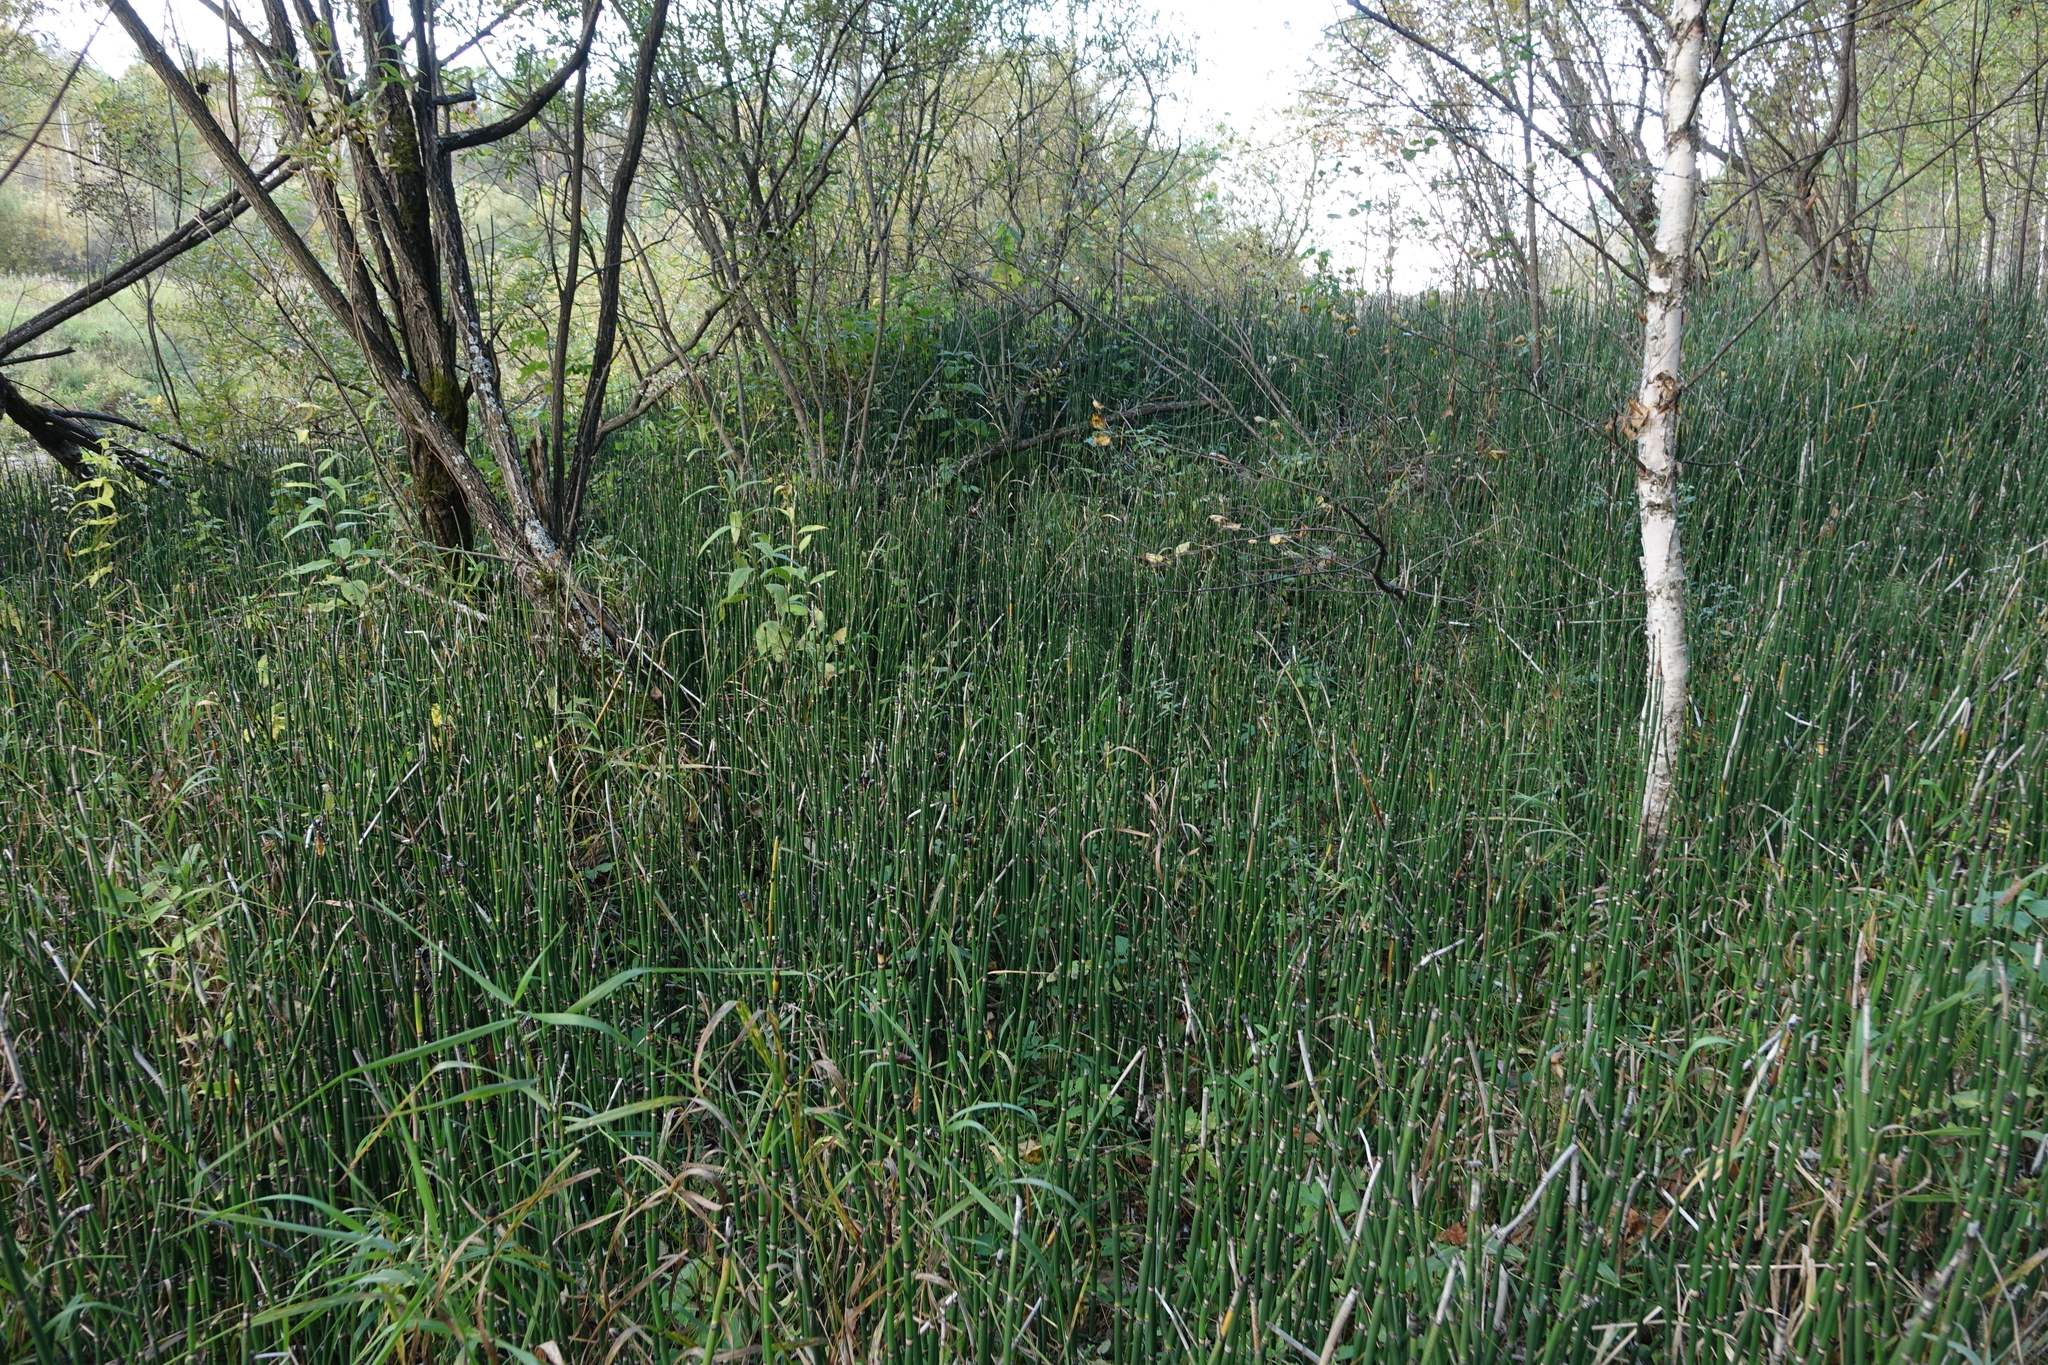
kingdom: Plantae
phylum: Tracheophyta
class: Polypodiopsida
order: Equisetales
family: Equisetaceae
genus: Equisetum
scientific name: Equisetum hyemale
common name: Rough horsetail
